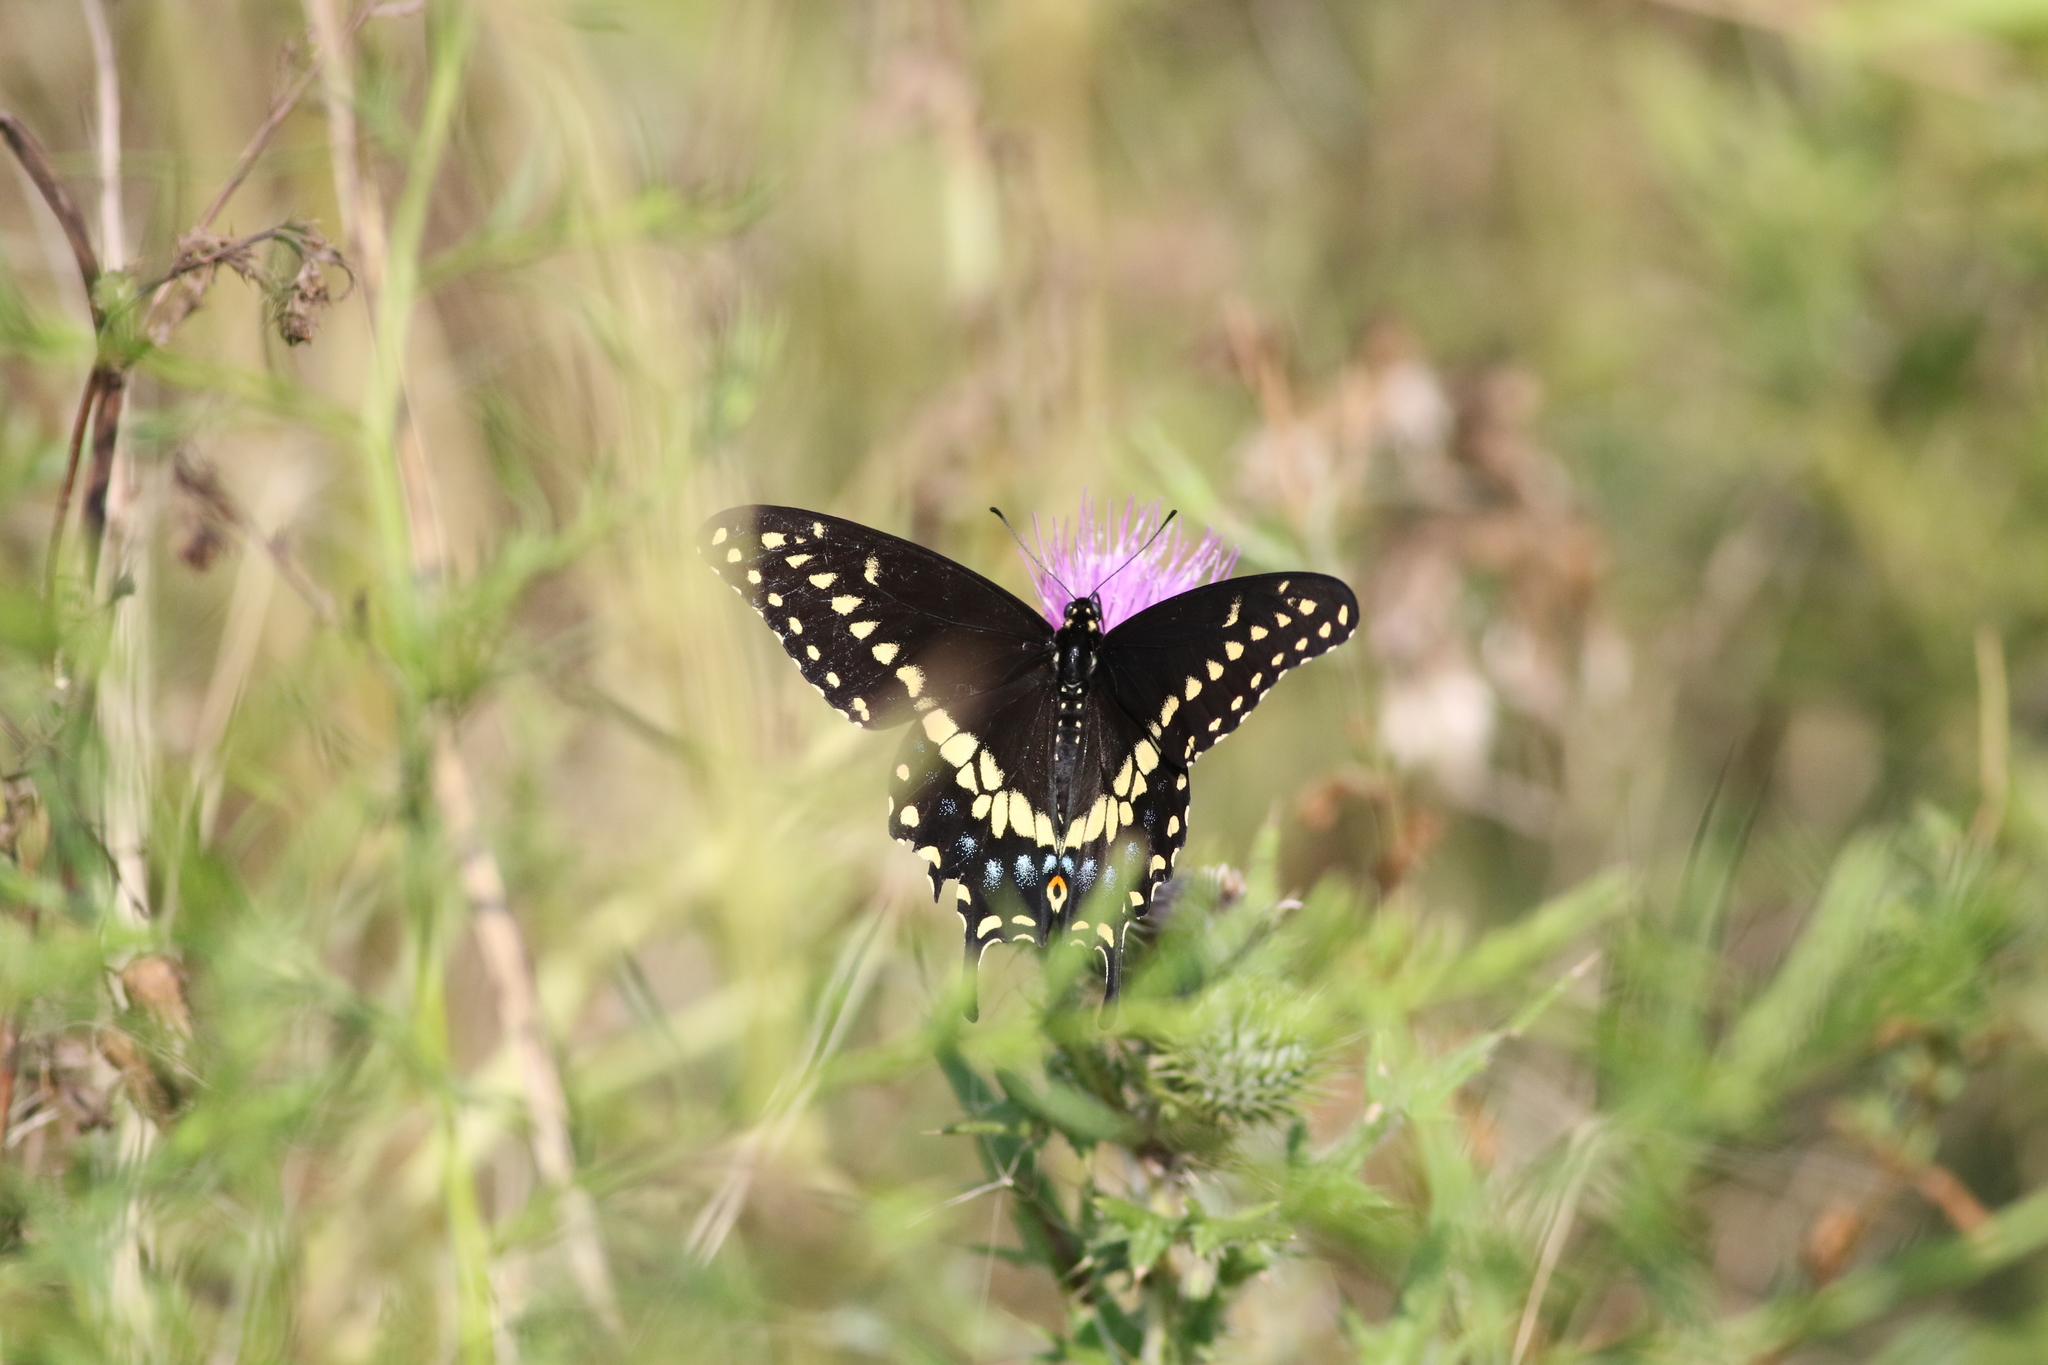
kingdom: Animalia
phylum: Arthropoda
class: Insecta
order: Lepidoptera
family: Papilionidae
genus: Papilio
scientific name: Papilio polyxenes
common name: Black swallowtail
